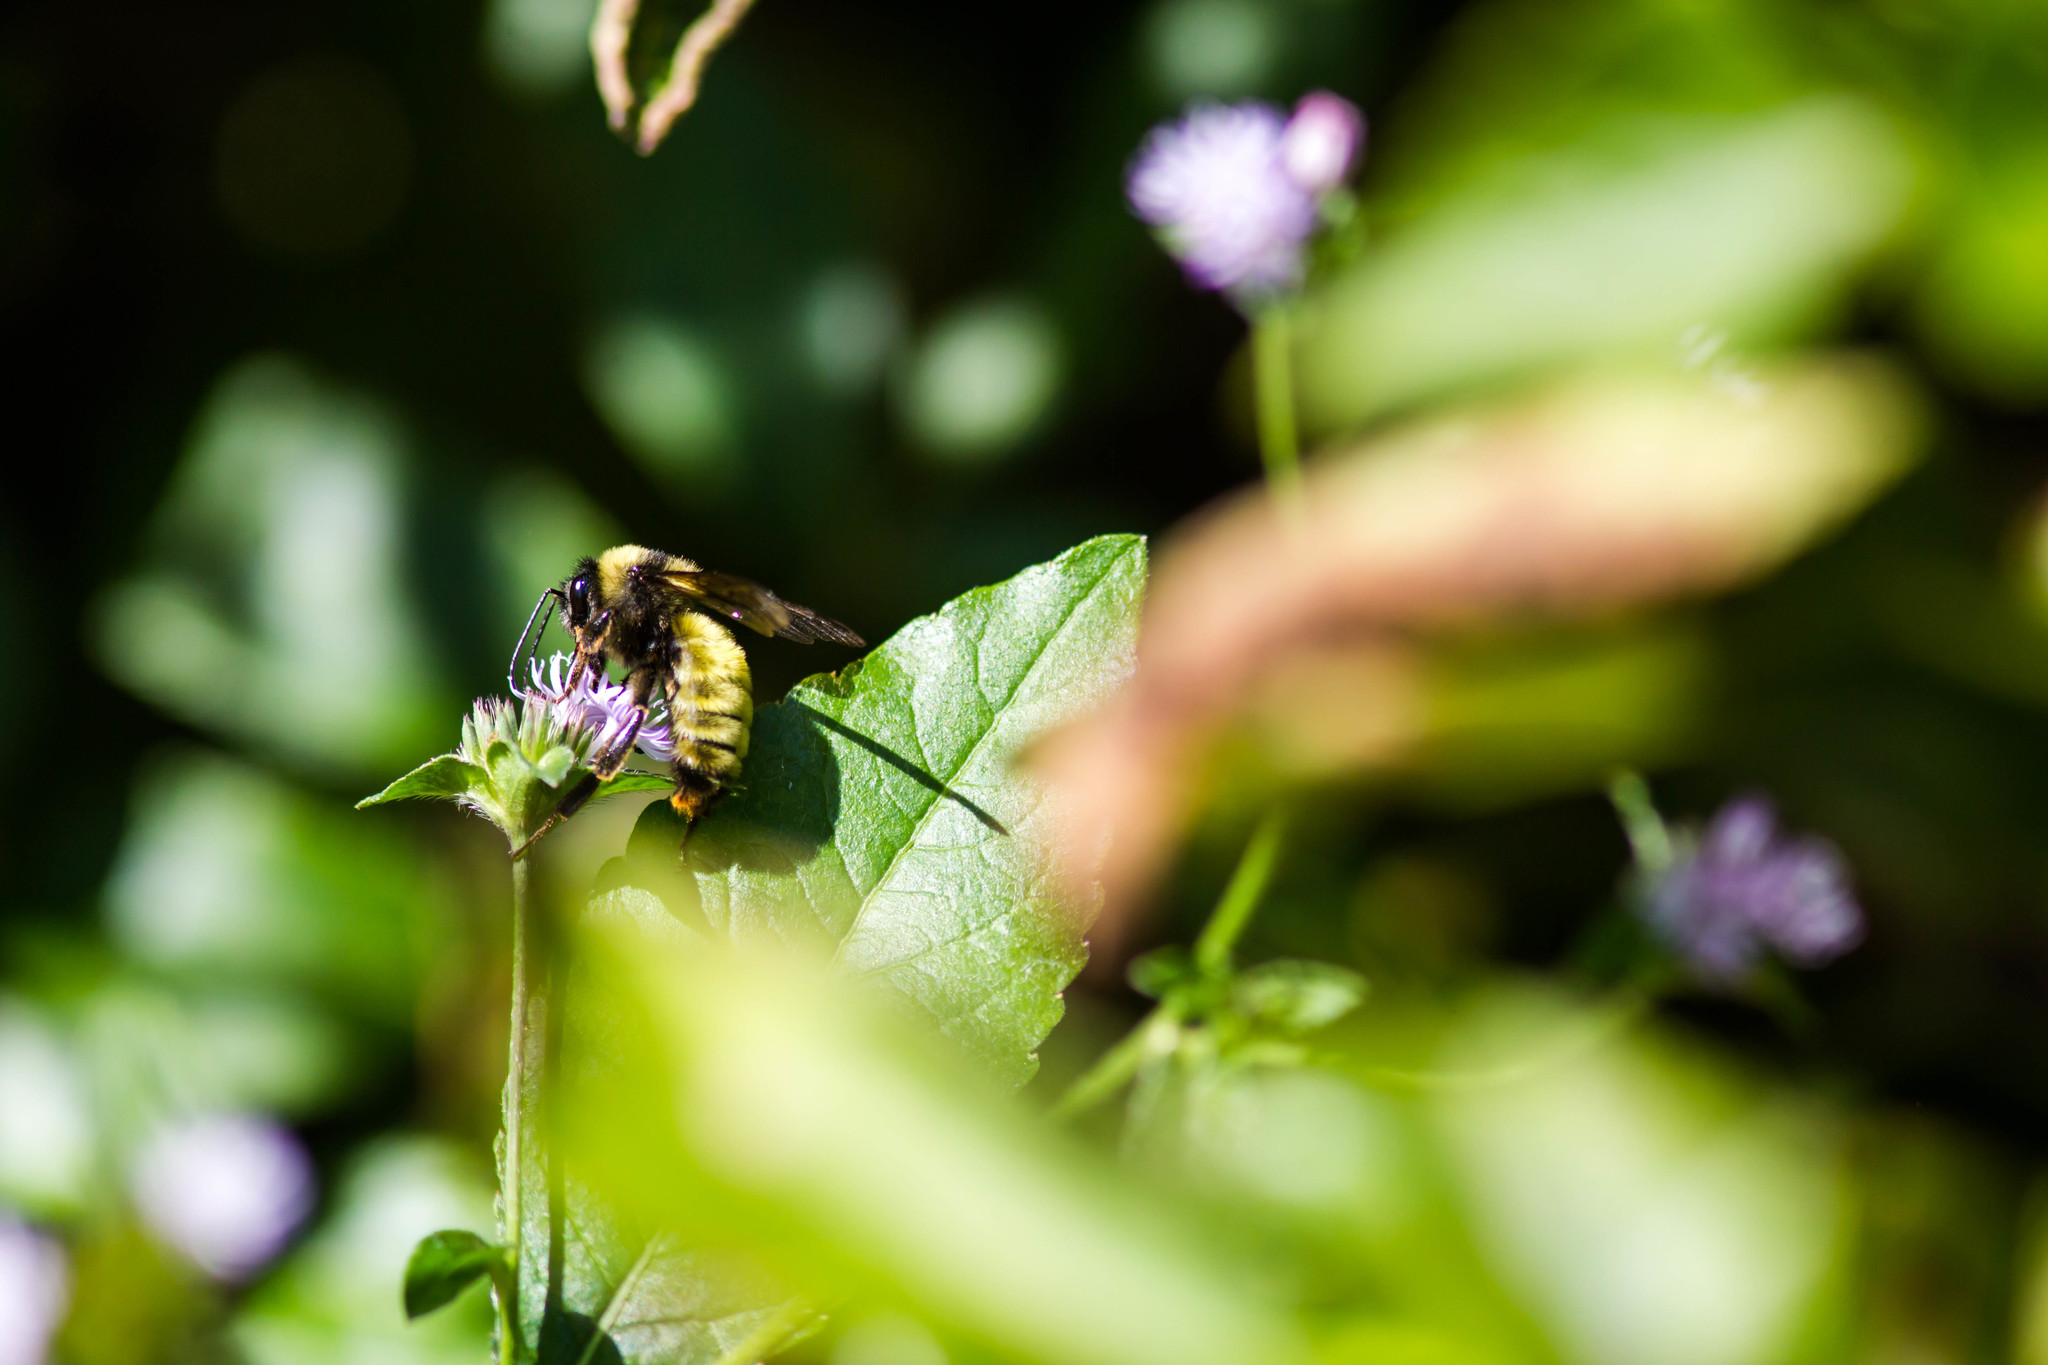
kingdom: Animalia
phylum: Arthropoda
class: Insecta
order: Hymenoptera
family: Apidae
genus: Bombus
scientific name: Bombus pensylvanicus
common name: Bumble bee
